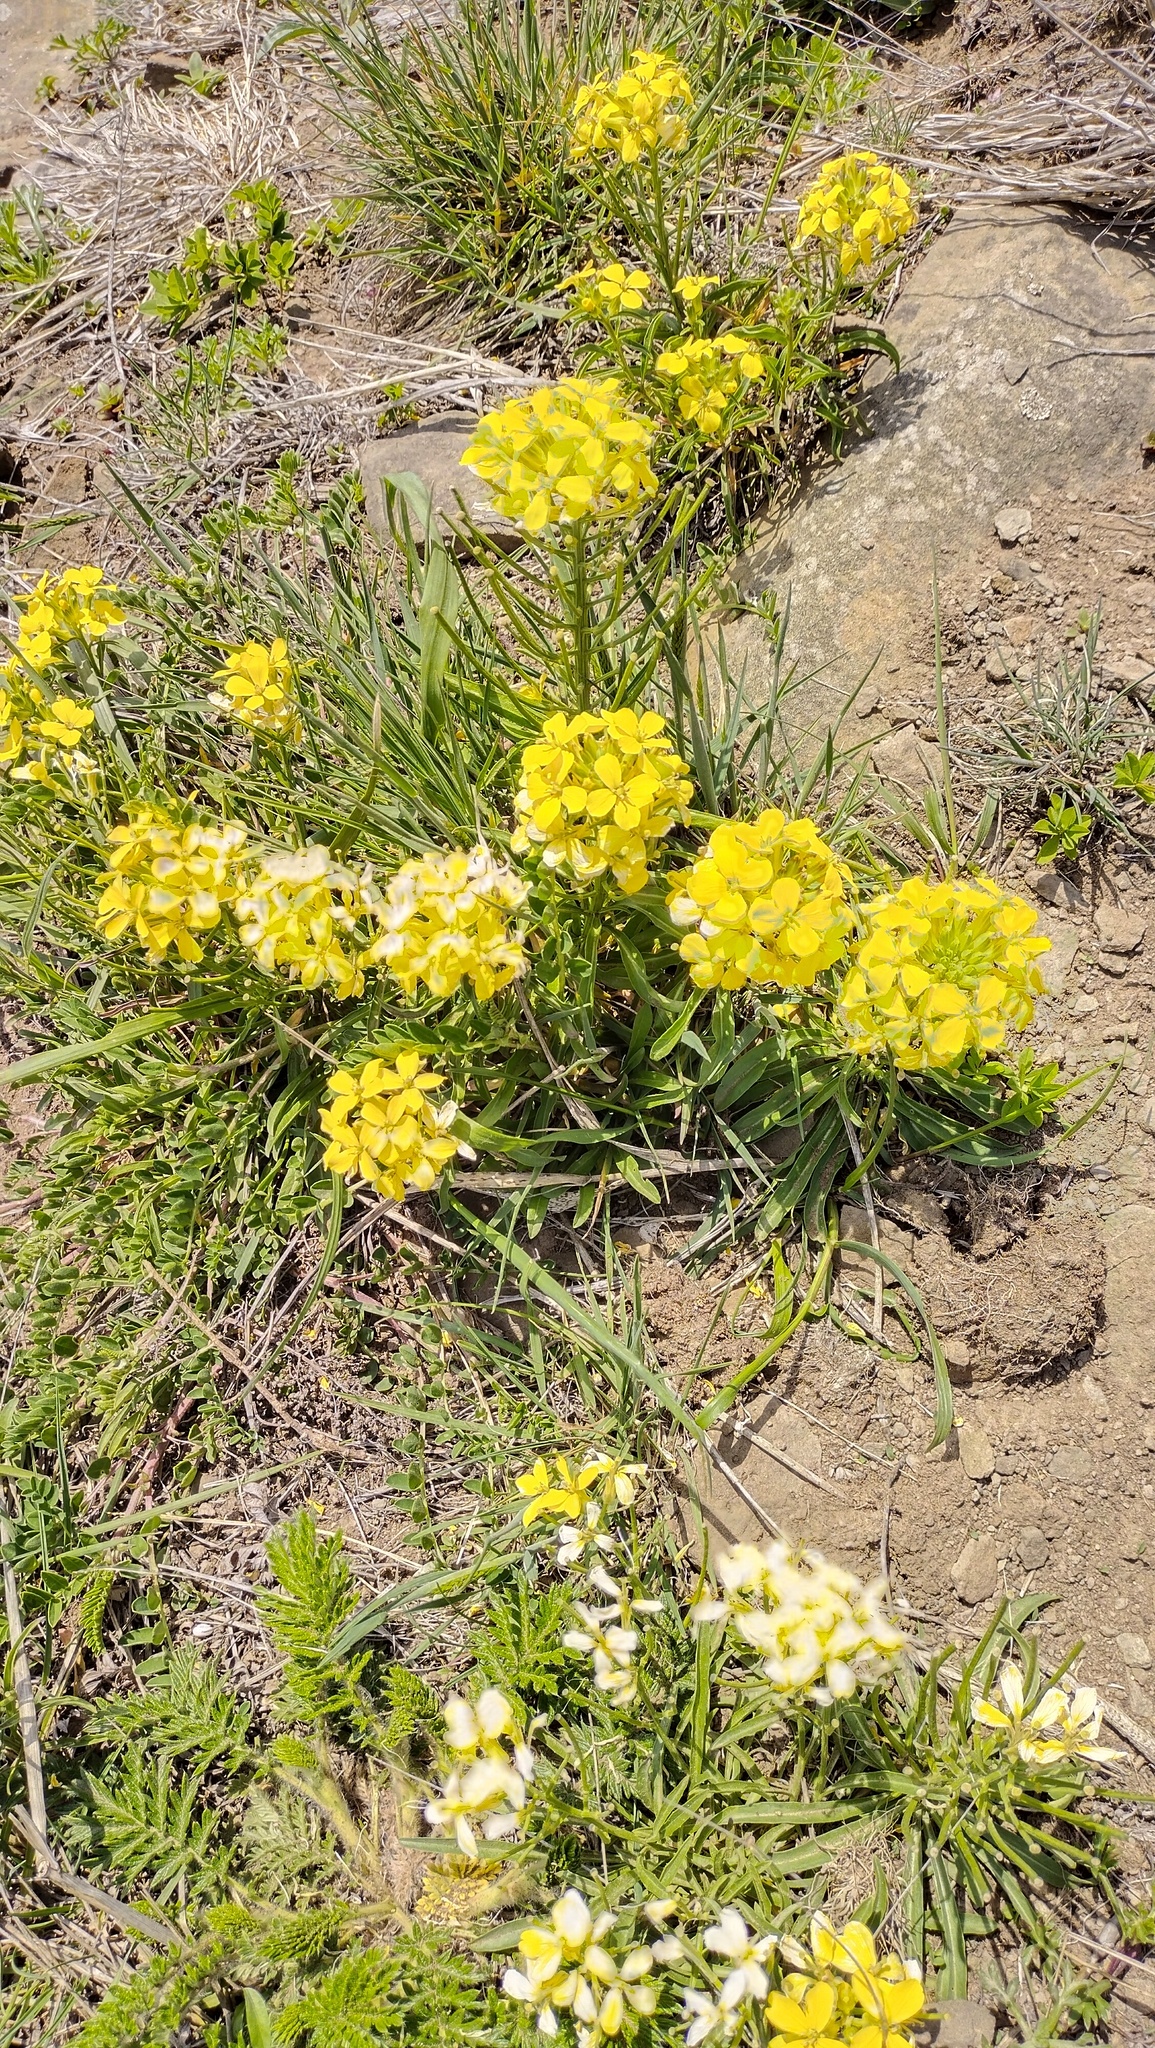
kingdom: Plantae
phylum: Tracheophyta
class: Magnoliopsida
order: Brassicales
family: Brassicaceae
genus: Erysimum
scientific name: Erysimum amurense
